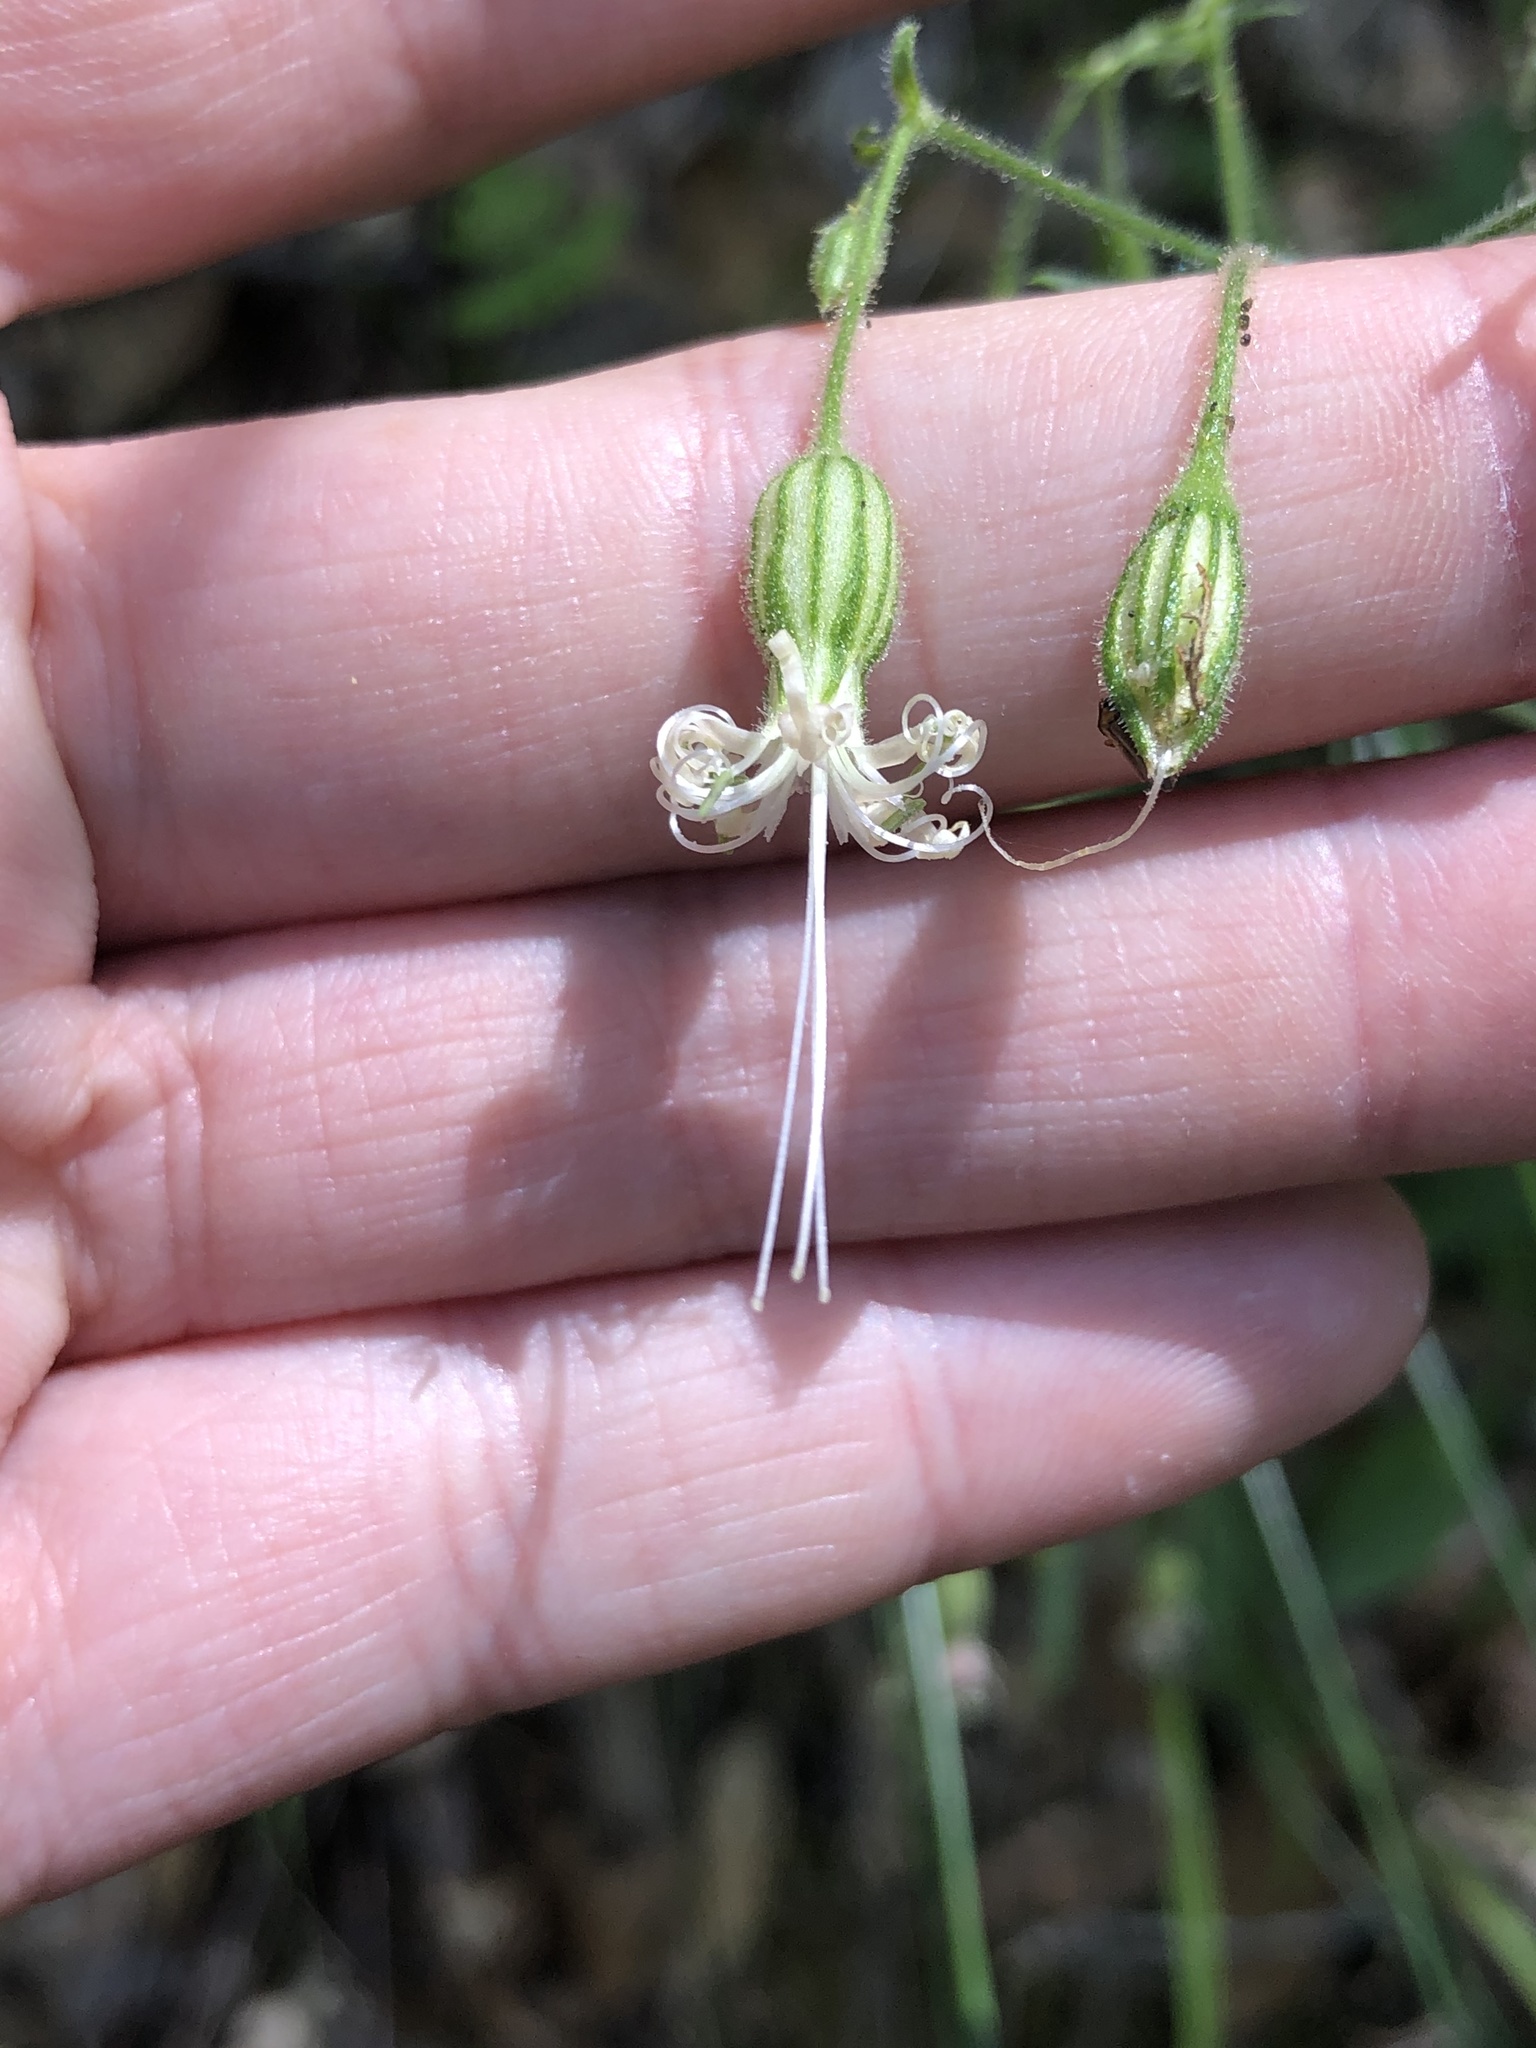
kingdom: Plantae
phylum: Tracheophyta
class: Magnoliopsida
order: Caryophyllales
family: Caryophyllaceae
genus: Silene
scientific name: Silene lemmonii
